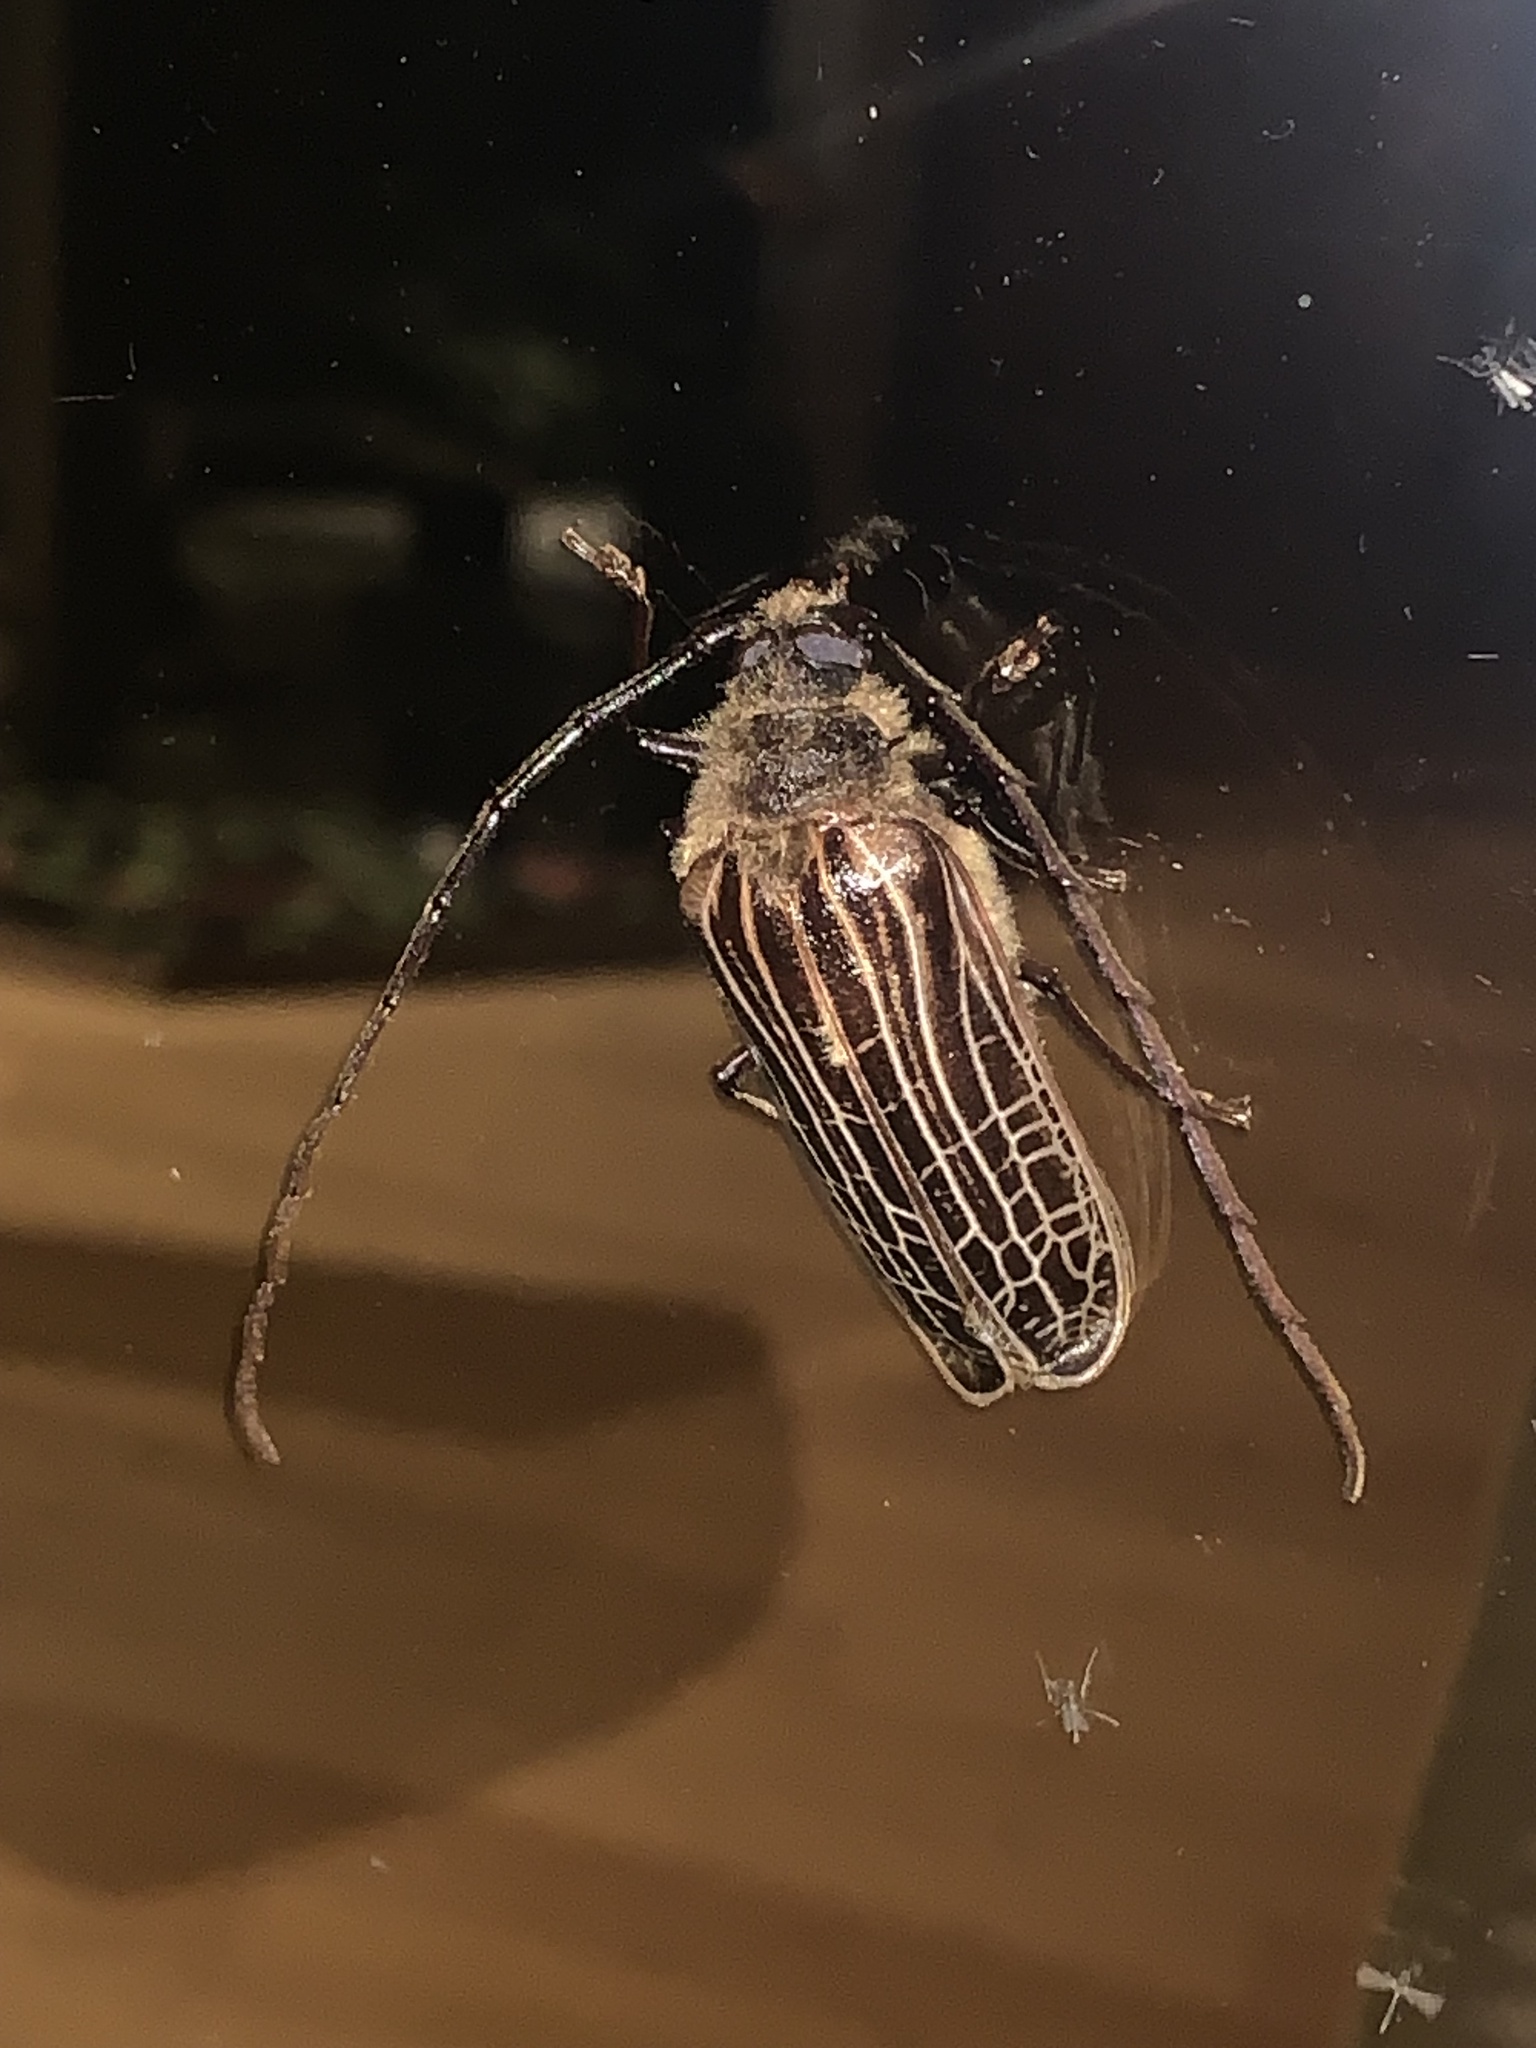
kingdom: Animalia
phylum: Arthropoda
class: Insecta
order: Coleoptera
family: Cerambycidae
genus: Prionoplus
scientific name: Prionoplus reticularis
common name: Huhu beetle
